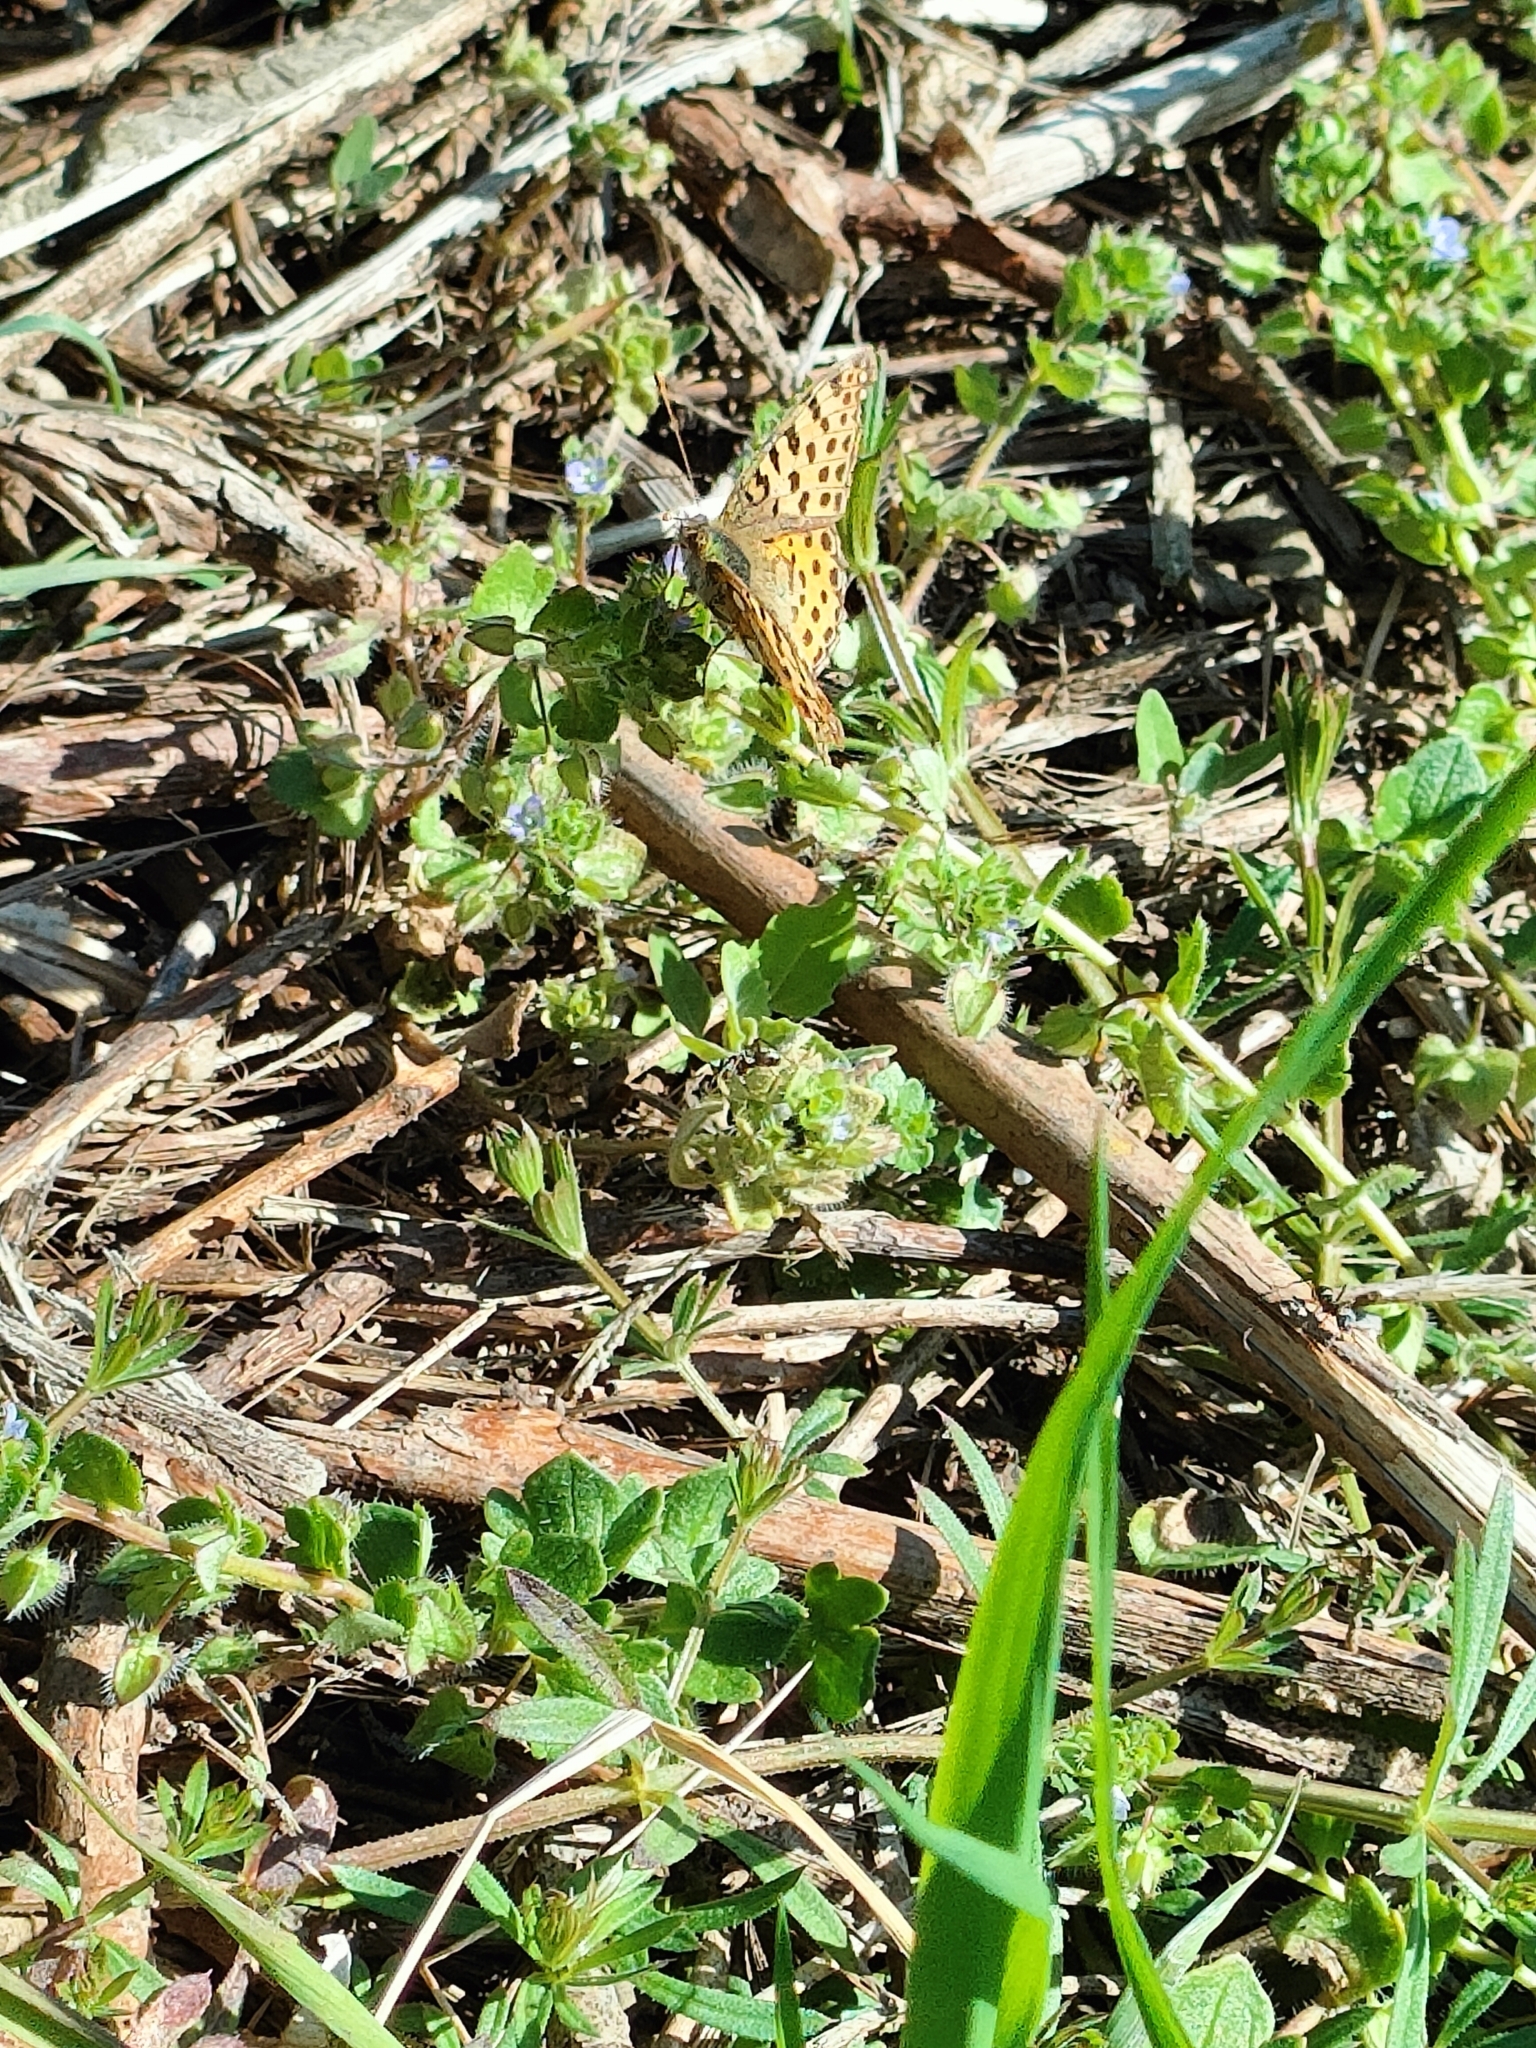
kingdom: Animalia
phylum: Arthropoda
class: Insecta
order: Lepidoptera
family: Nymphalidae
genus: Issoria
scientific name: Issoria lathonia
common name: Queen of spain fritillary
